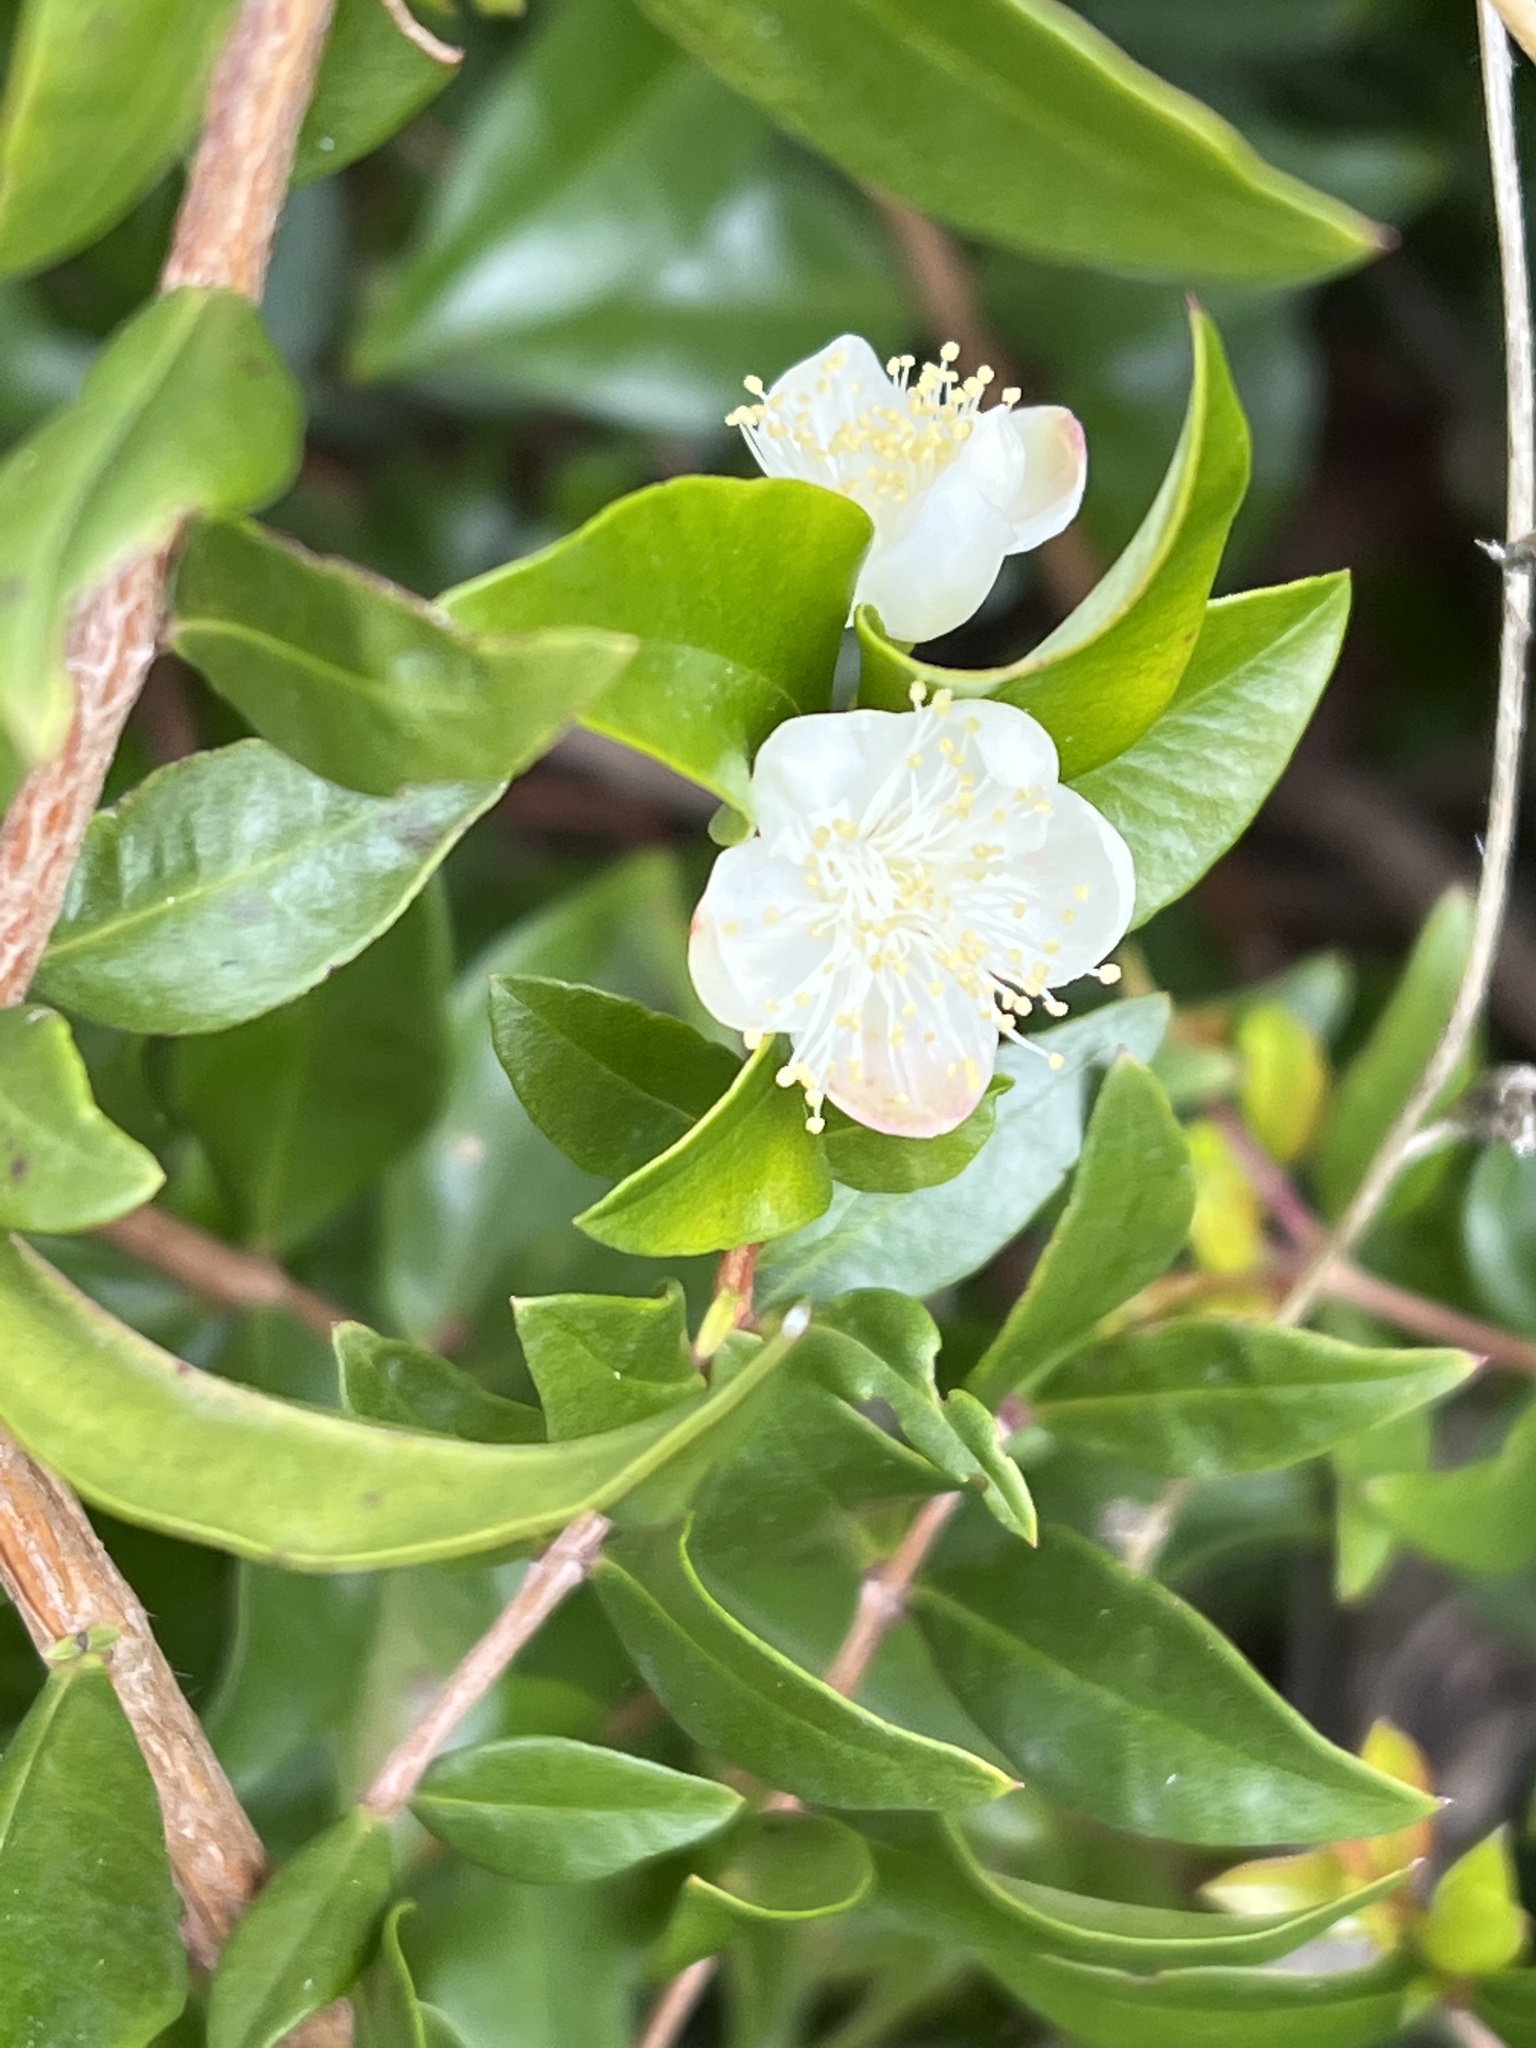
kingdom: Plantae
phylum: Tracheophyta
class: Magnoliopsida
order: Myrtales
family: Myrtaceae
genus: Myrtus
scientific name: Myrtus communis
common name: Myrtle
